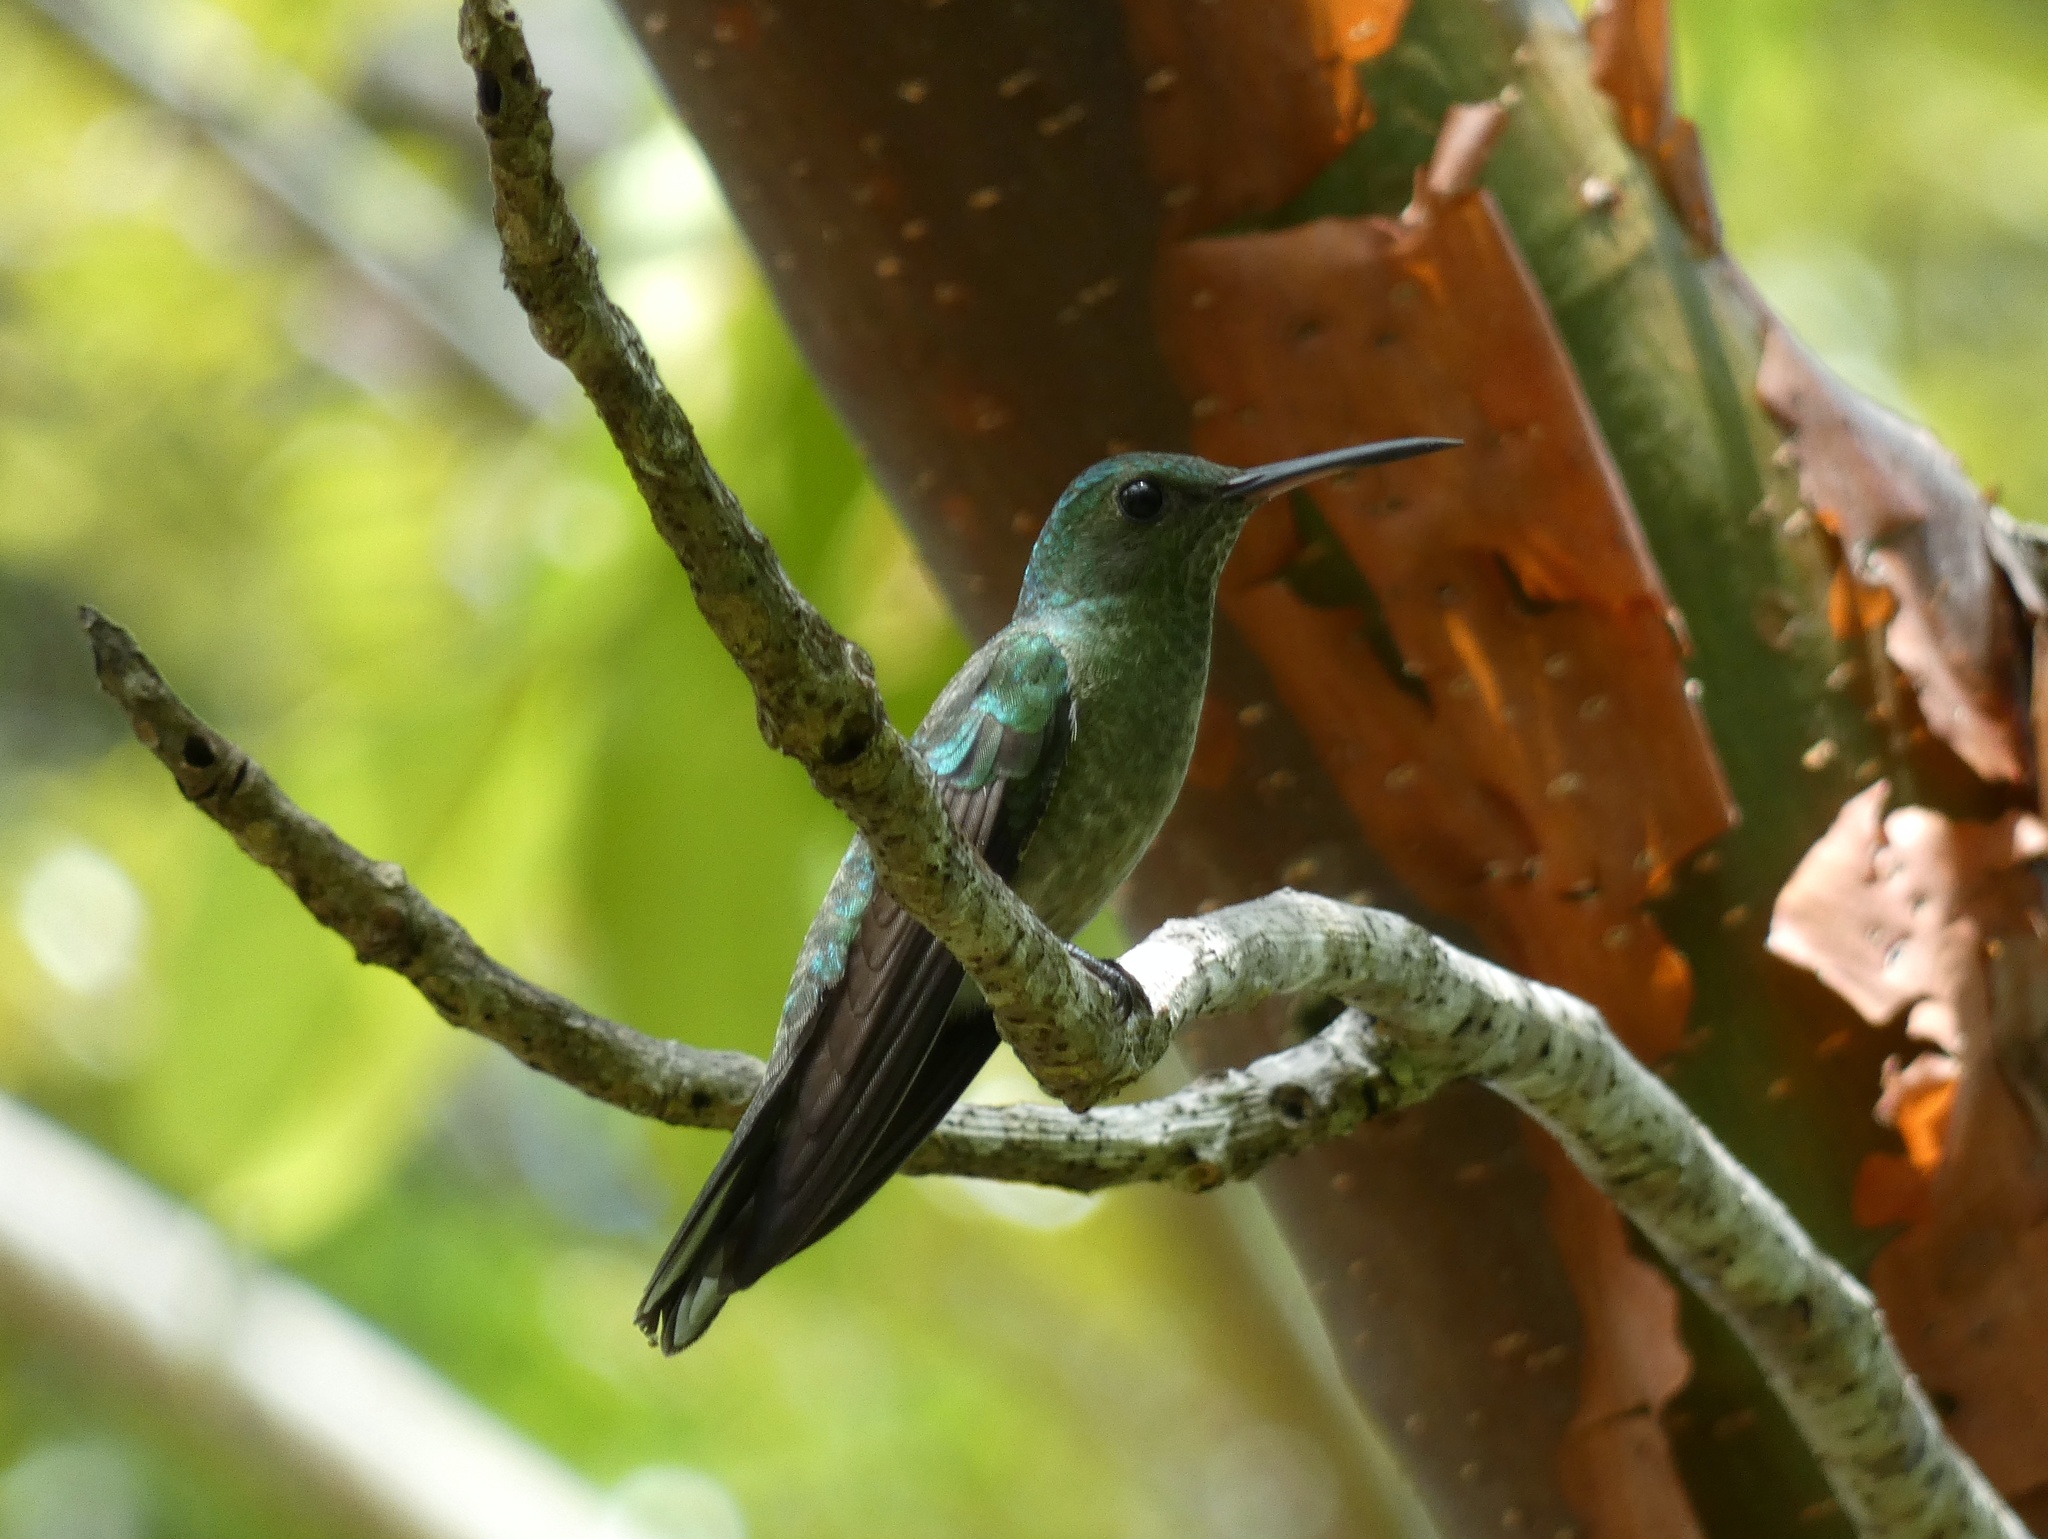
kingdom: Animalia
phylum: Chordata
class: Aves
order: Apodiformes
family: Trochilidae
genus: Phaeochroa
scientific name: Phaeochroa cuvierii
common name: Scaly-breasted hummingbird
